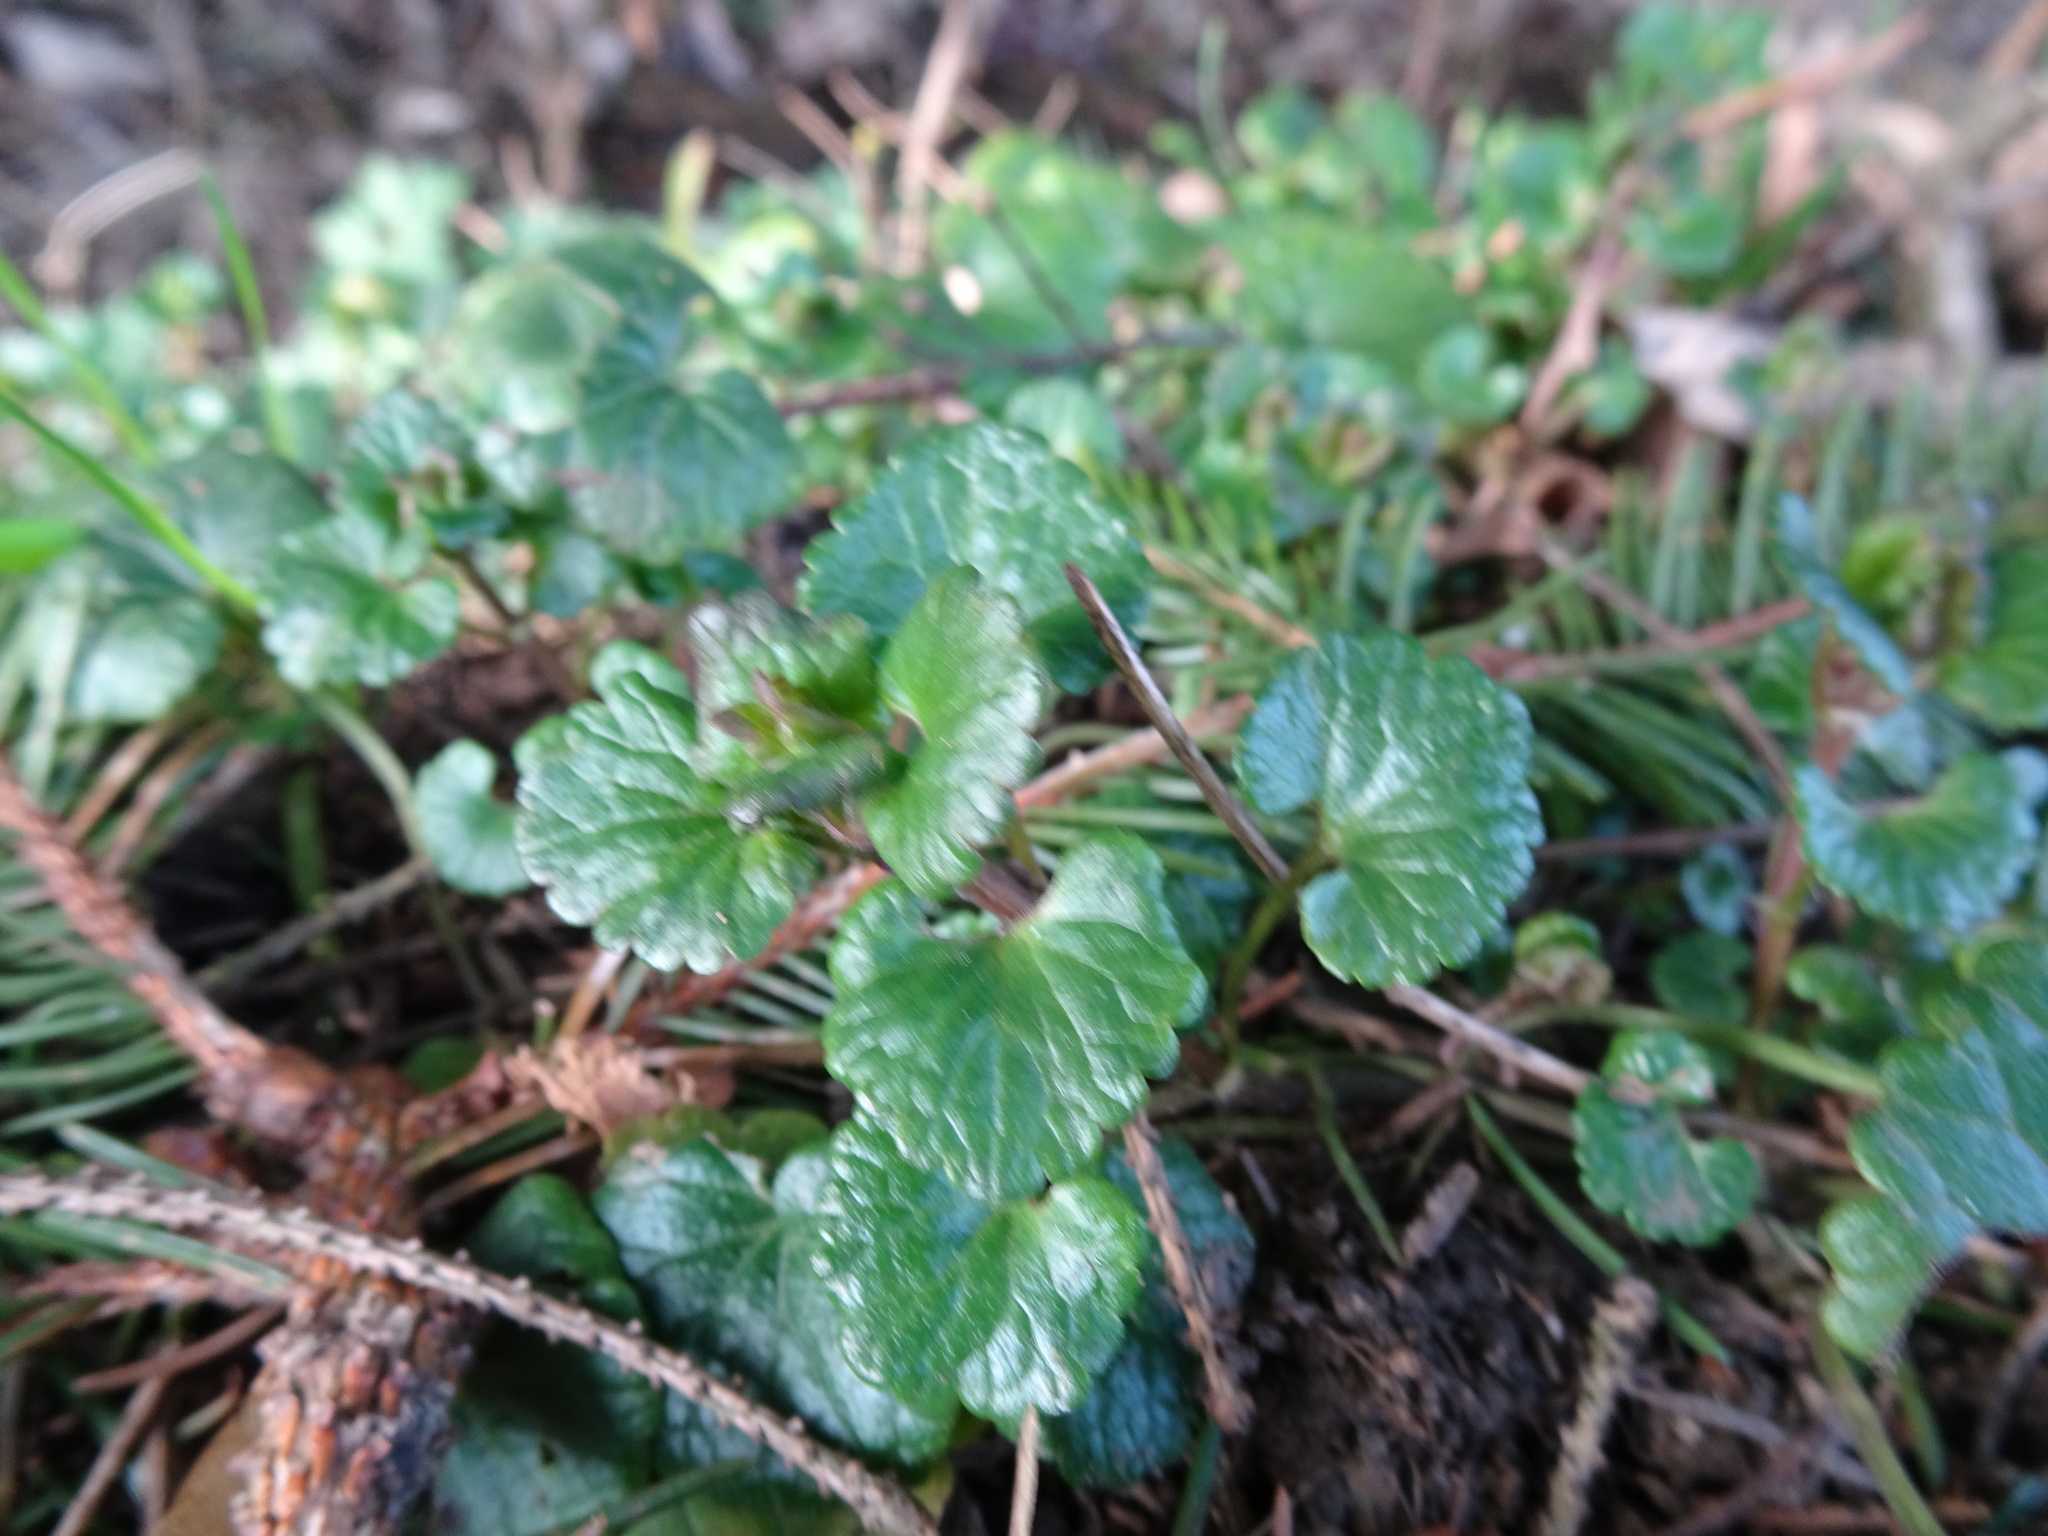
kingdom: Plantae
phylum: Tracheophyta
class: Magnoliopsida
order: Lamiales
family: Lamiaceae
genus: Glechoma
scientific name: Glechoma hederacea
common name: Ground ivy
